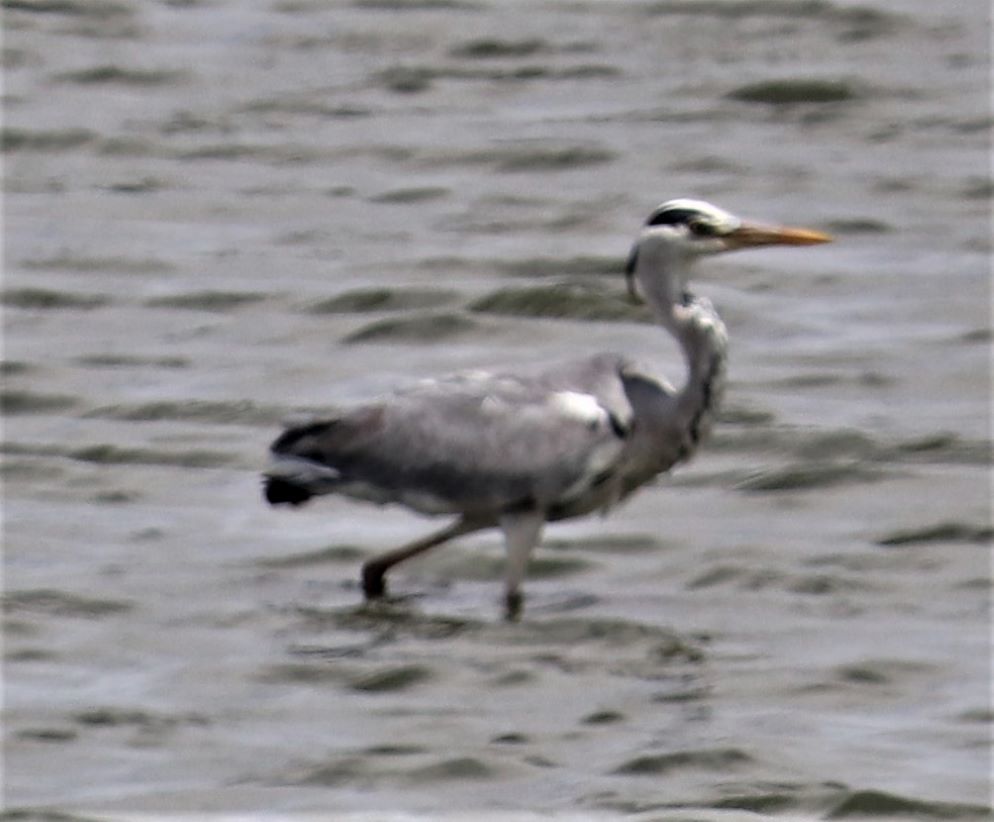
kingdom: Animalia
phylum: Chordata
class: Aves
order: Pelecaniformes
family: Ardeidae
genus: Ardea
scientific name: Ardea cinerea
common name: Grey heron
